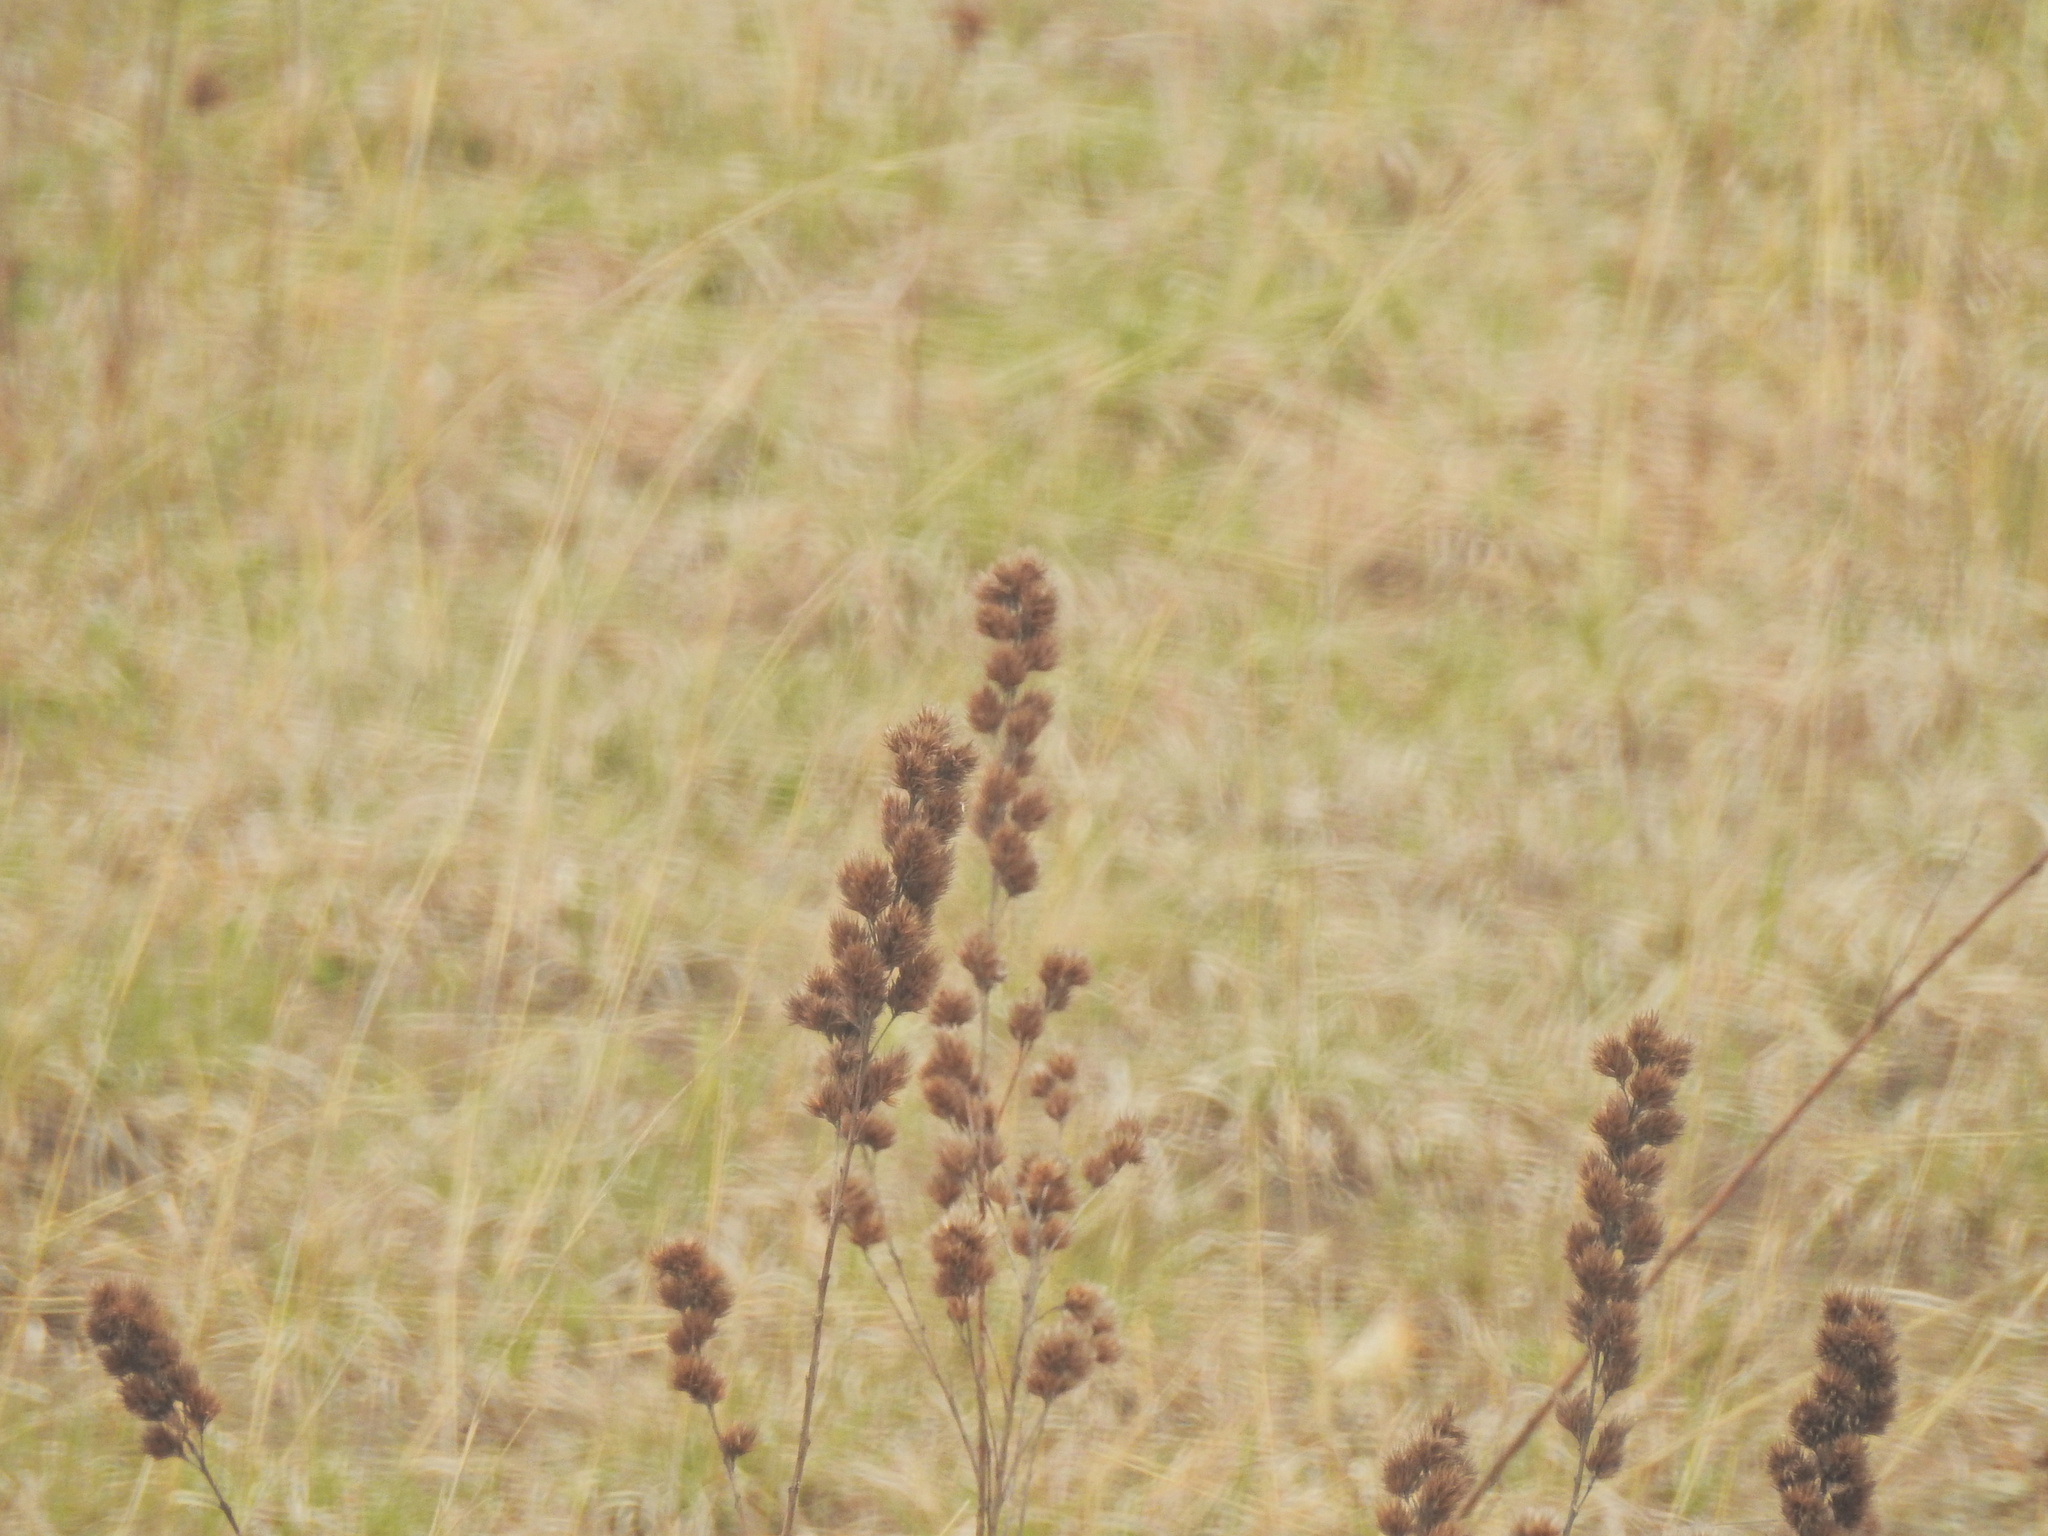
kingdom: Plantae
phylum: Tracheophyta
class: Magnoliopsida
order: Fabales
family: Fabaceae
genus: Lespedeza
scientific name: Lespedeza capitata
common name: Dusty clover
